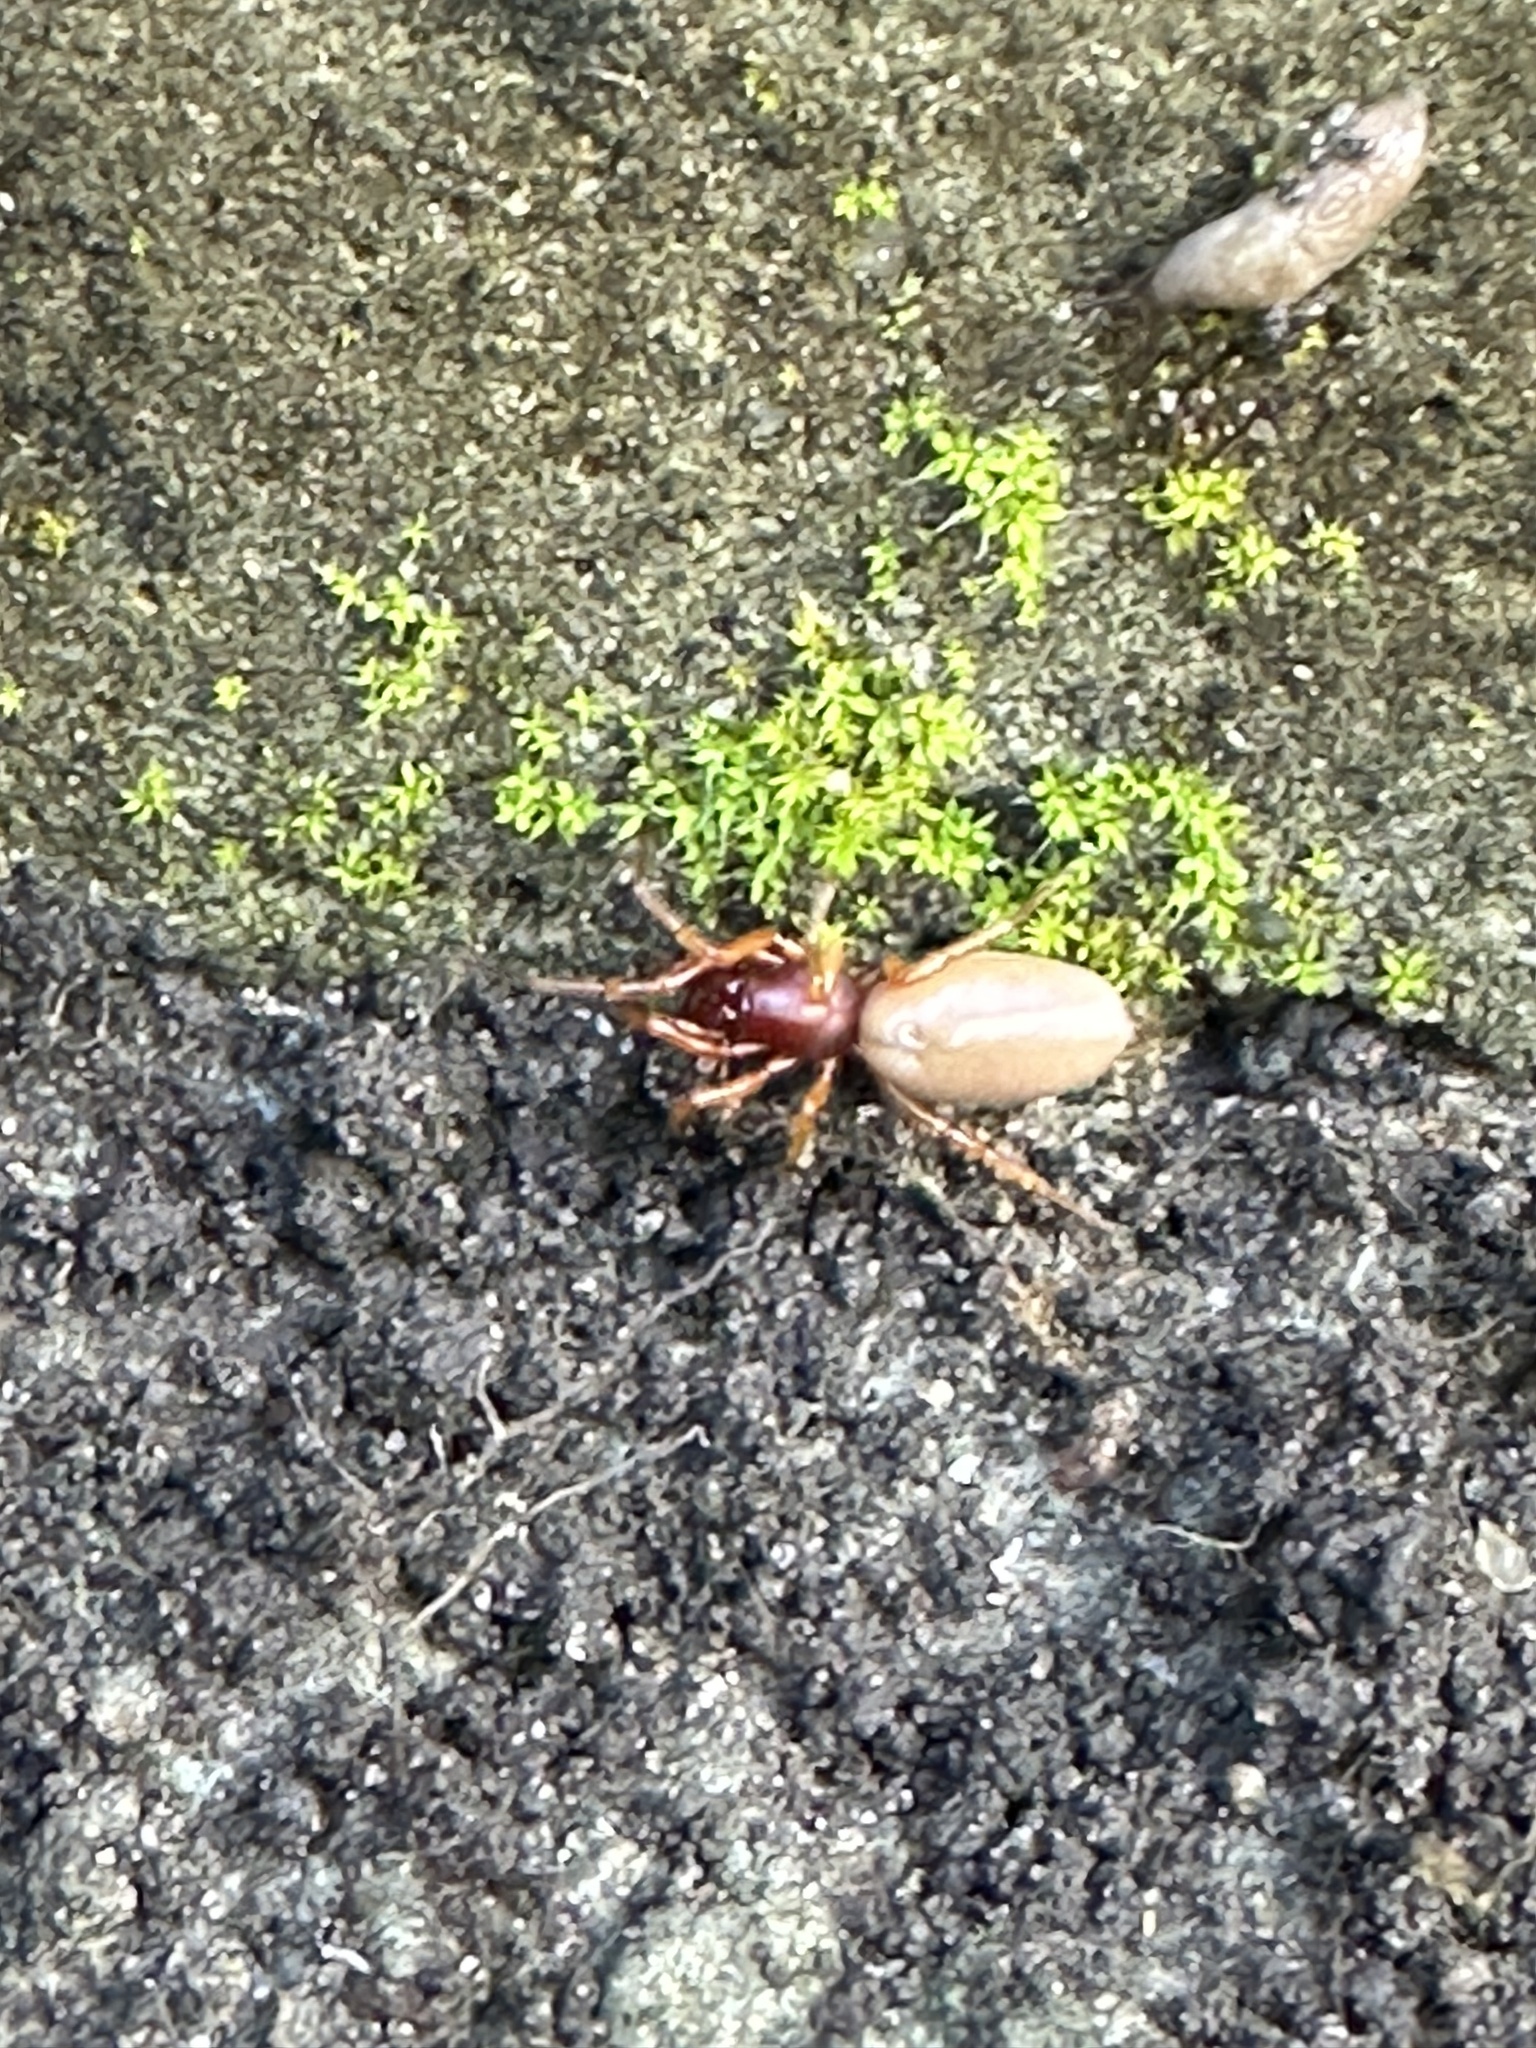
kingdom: Animalia
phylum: Arthropoda
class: Arachnida
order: Araneae
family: Dysderidae
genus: Dysdera
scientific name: Dysdera crocata
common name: Woodlouse spider
